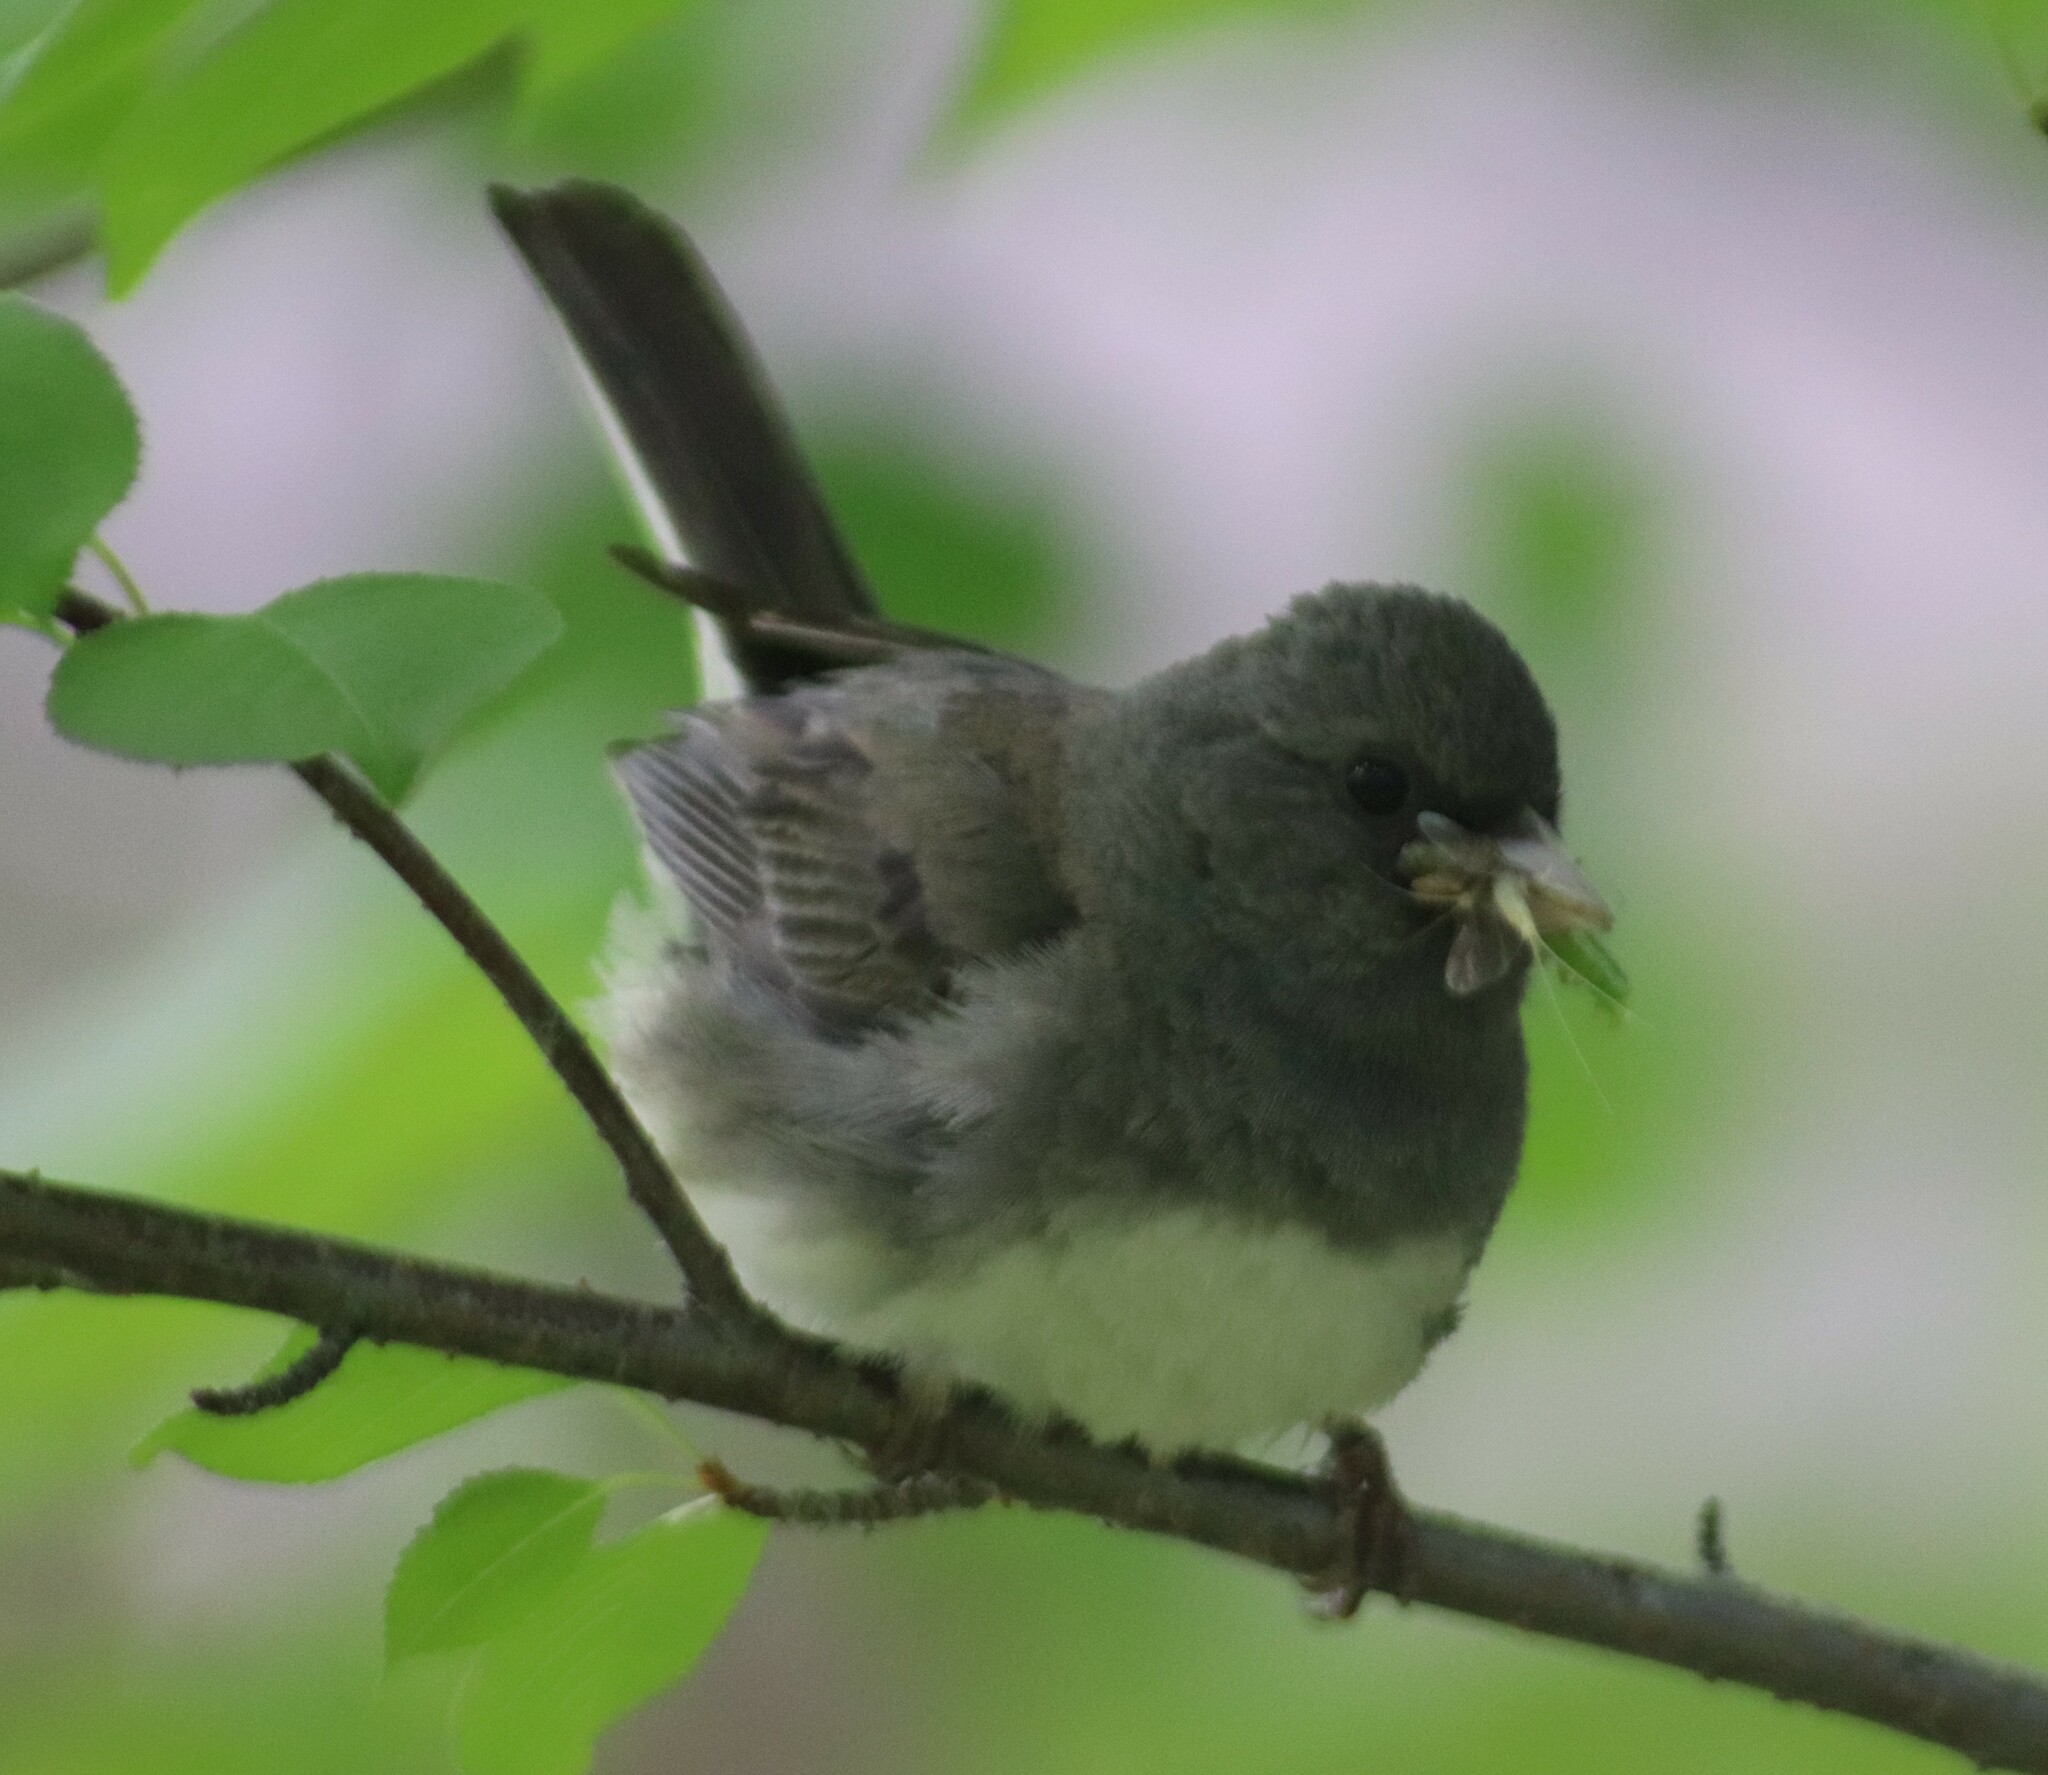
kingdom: Animalia
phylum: Chordata
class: Aves
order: Passeriformes
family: Passerellidae
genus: Junco
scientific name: Junco hyemalis
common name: Dark-eyed junco
